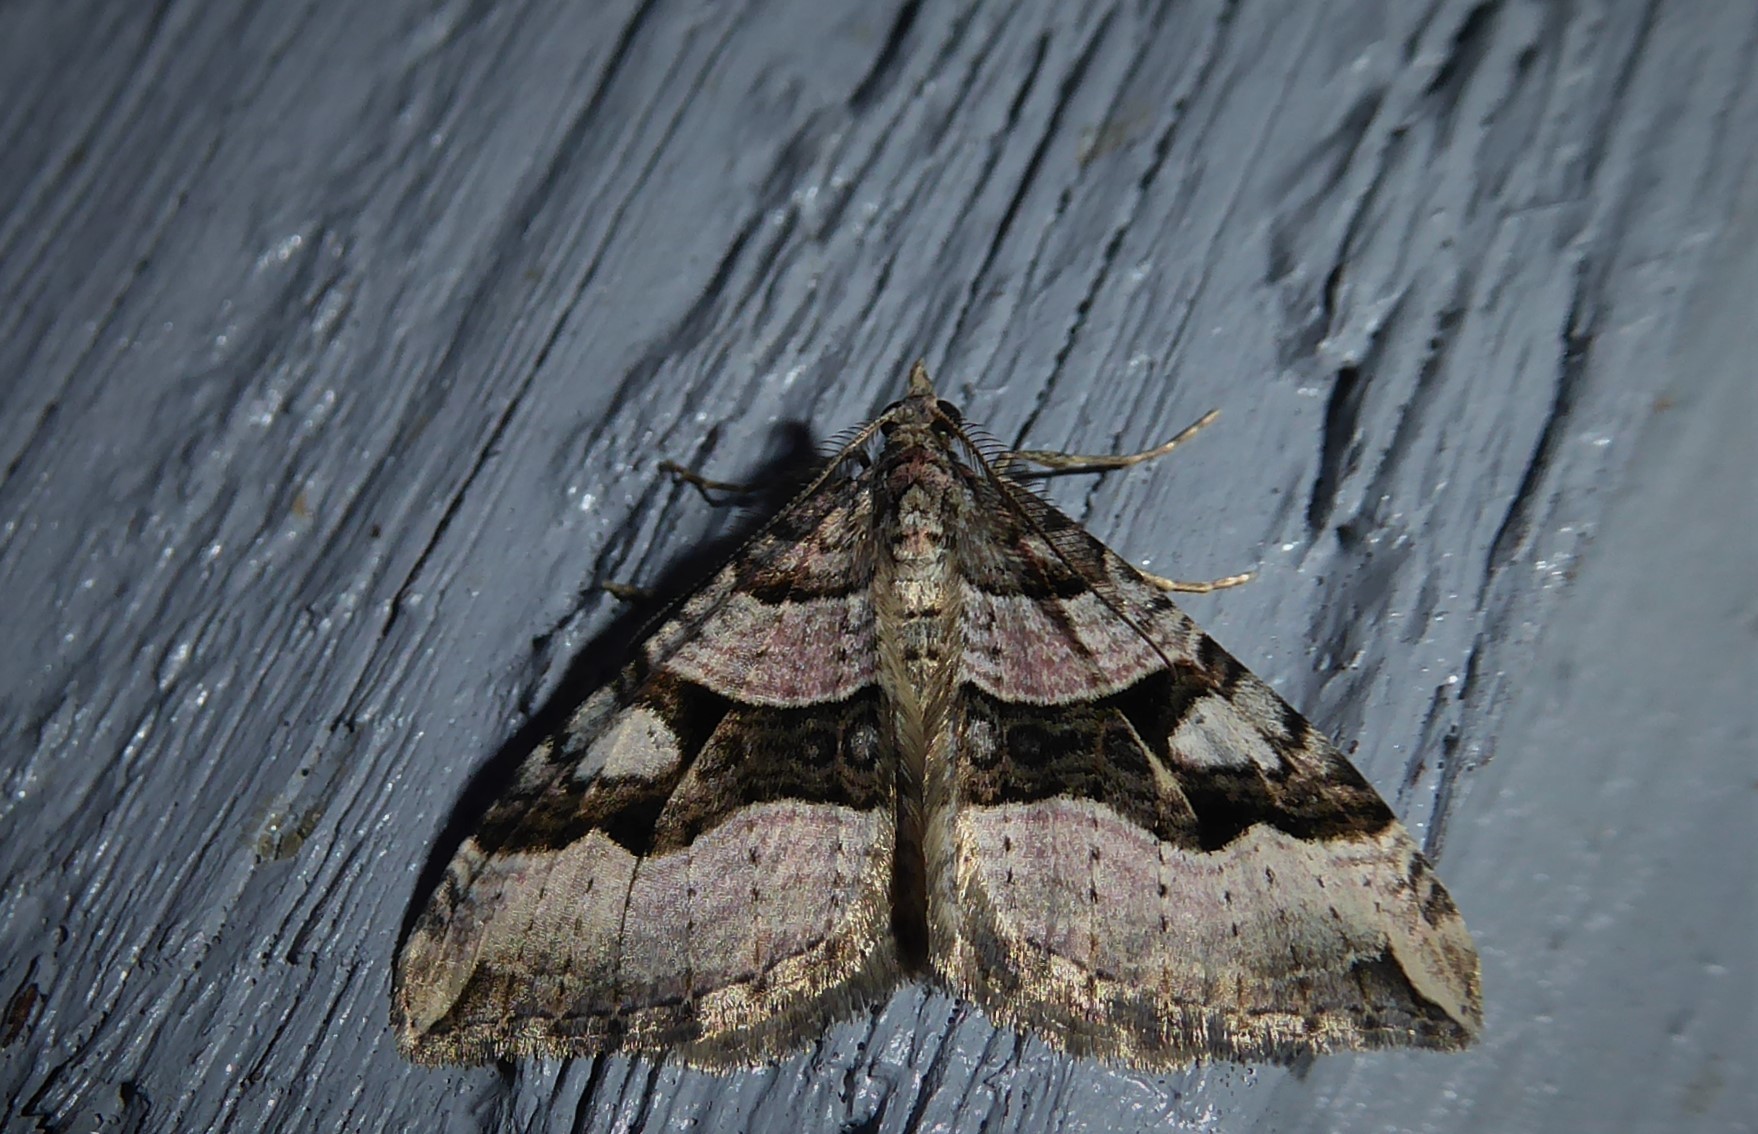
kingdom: Animalia
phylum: Arthropoda
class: Insecta
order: Lepidoptera
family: Geometridae
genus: Xanthorhoe
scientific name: Xanthorhoe semifissata
